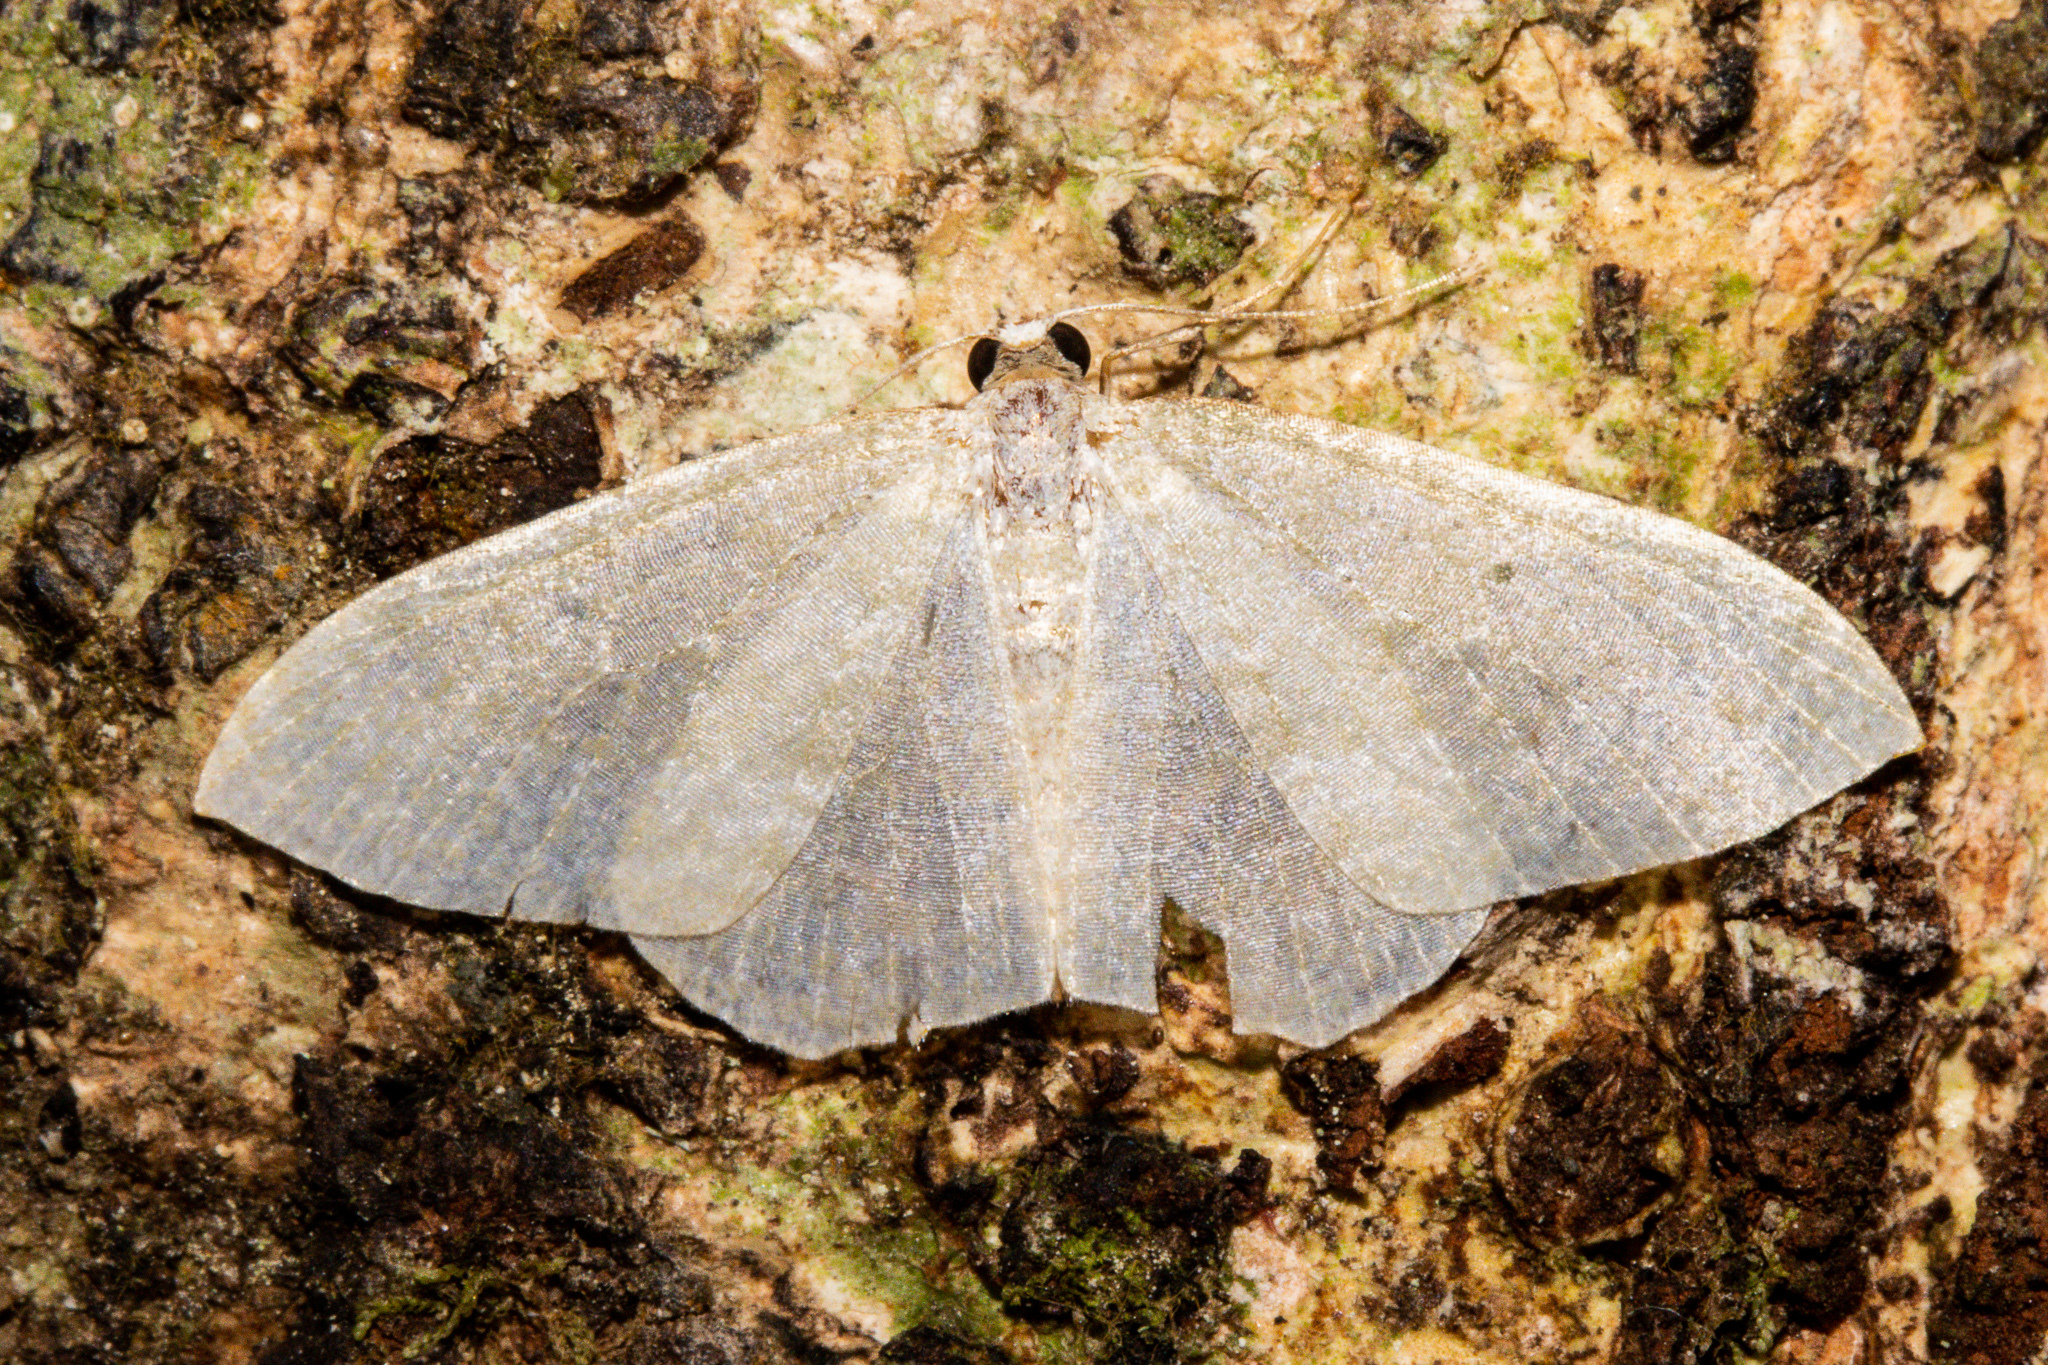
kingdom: Animalia
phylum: Arthropoda
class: Insecta
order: Lepidoptera
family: Geometridae
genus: Poecilasthena
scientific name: Poecilasthena pulchraria
